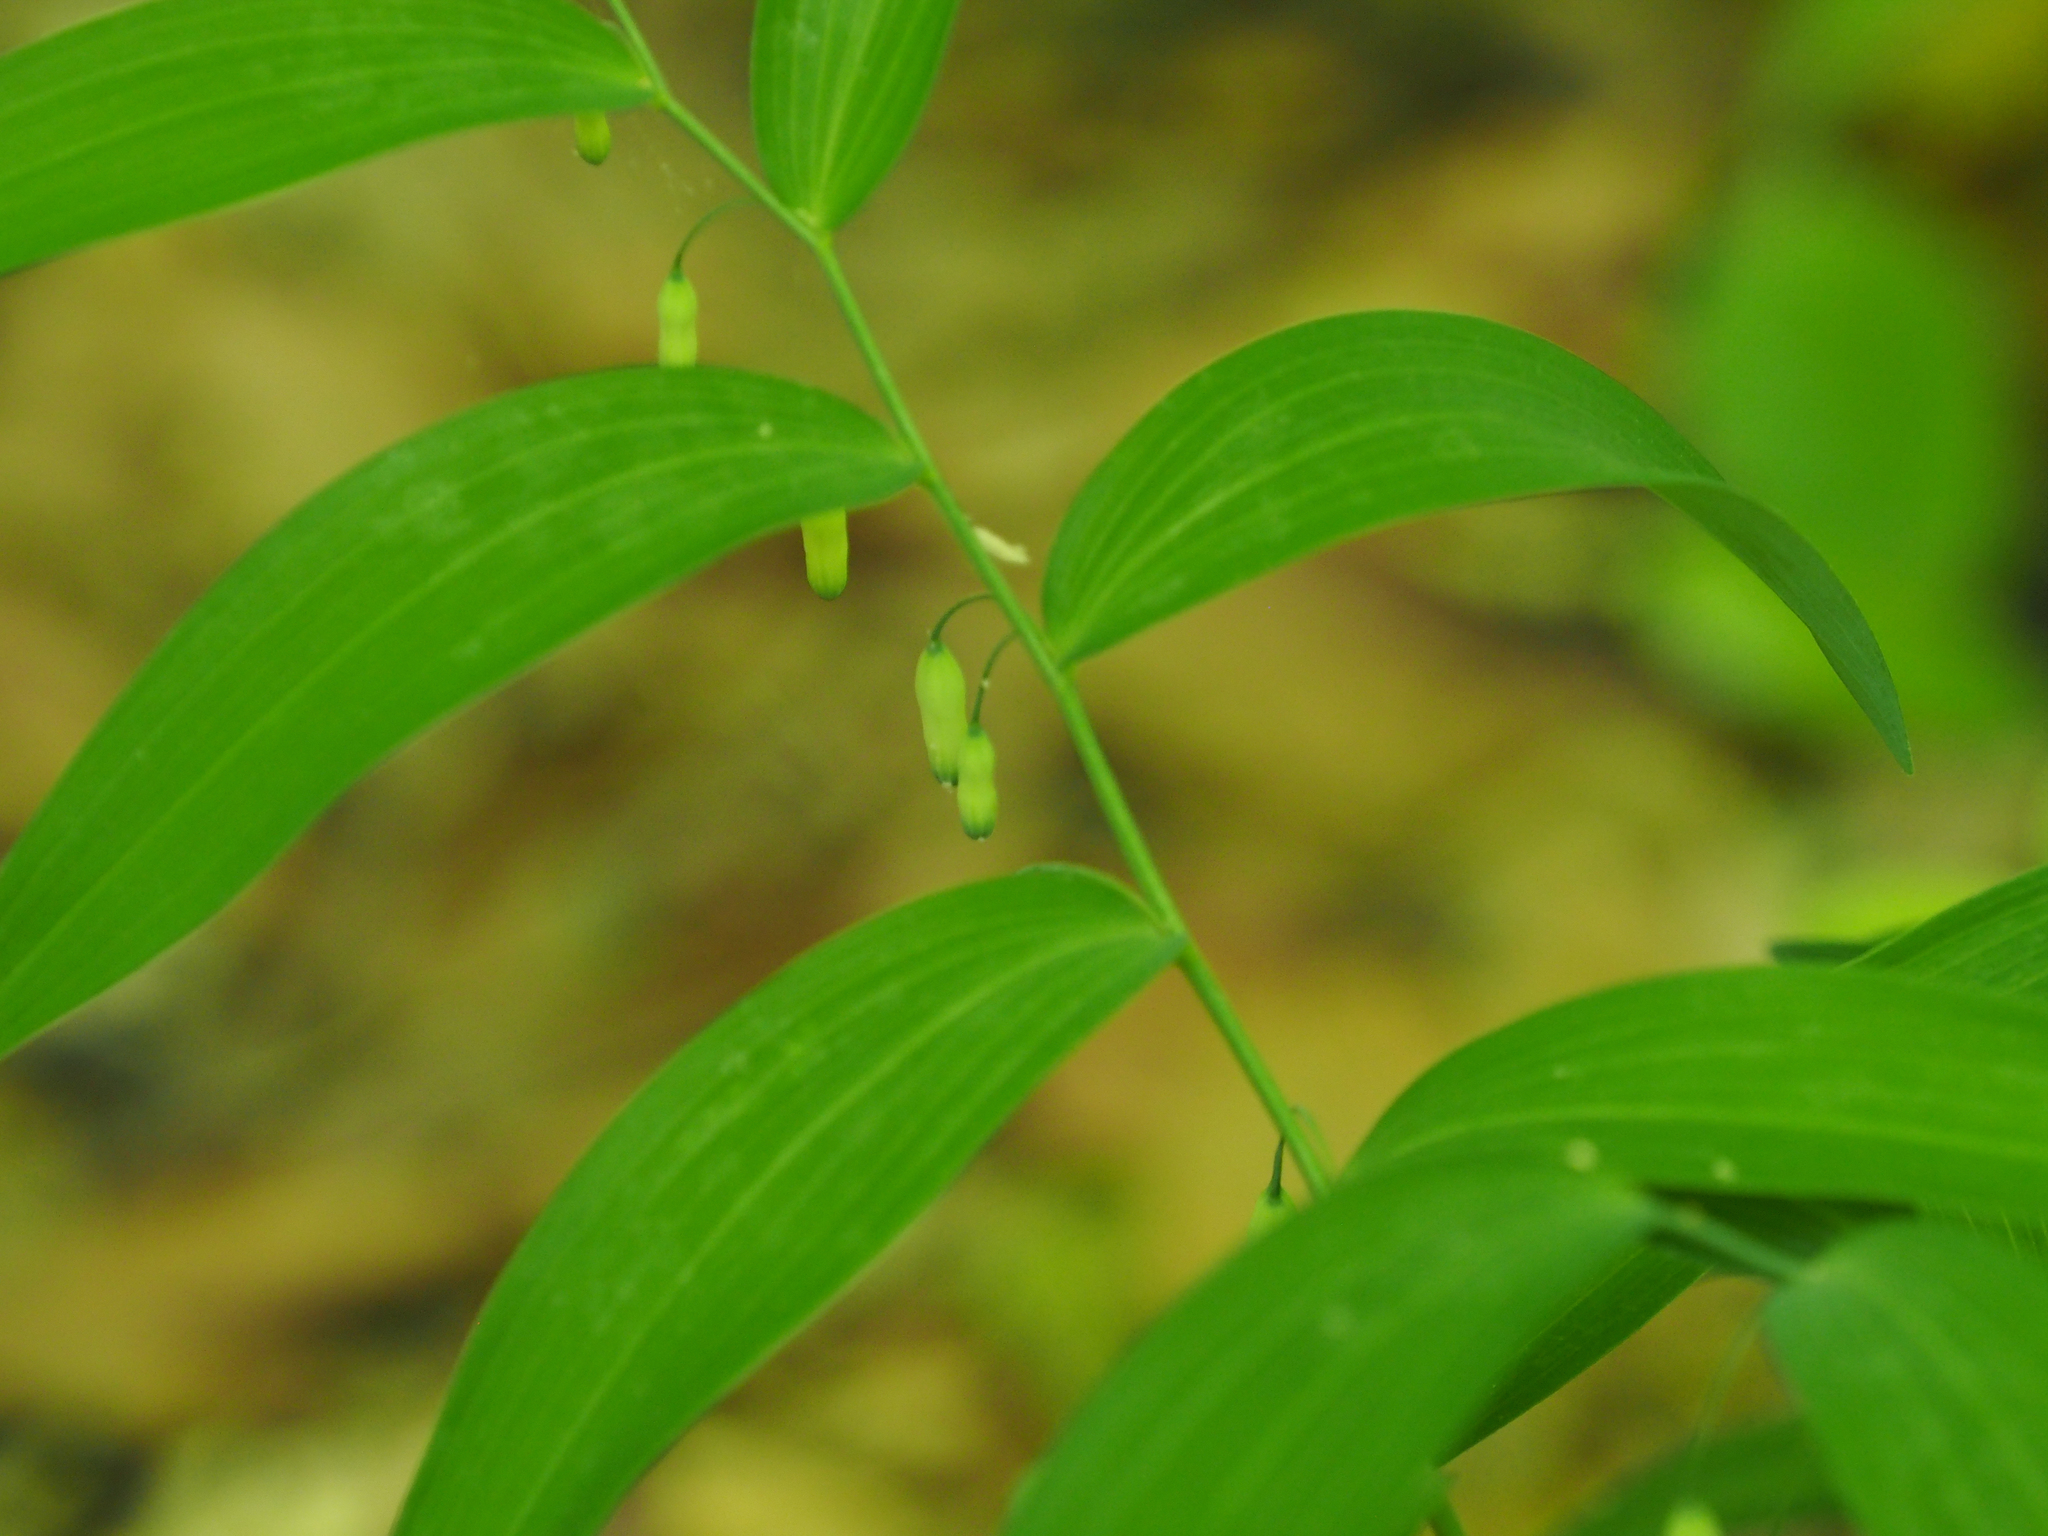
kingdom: Plantae
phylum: Tracheophyta
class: Liliopsida
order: Asparagales
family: Asparagaceae
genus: Polygonatum
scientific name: Polygonatum biflorum
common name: American solomon's-seal
